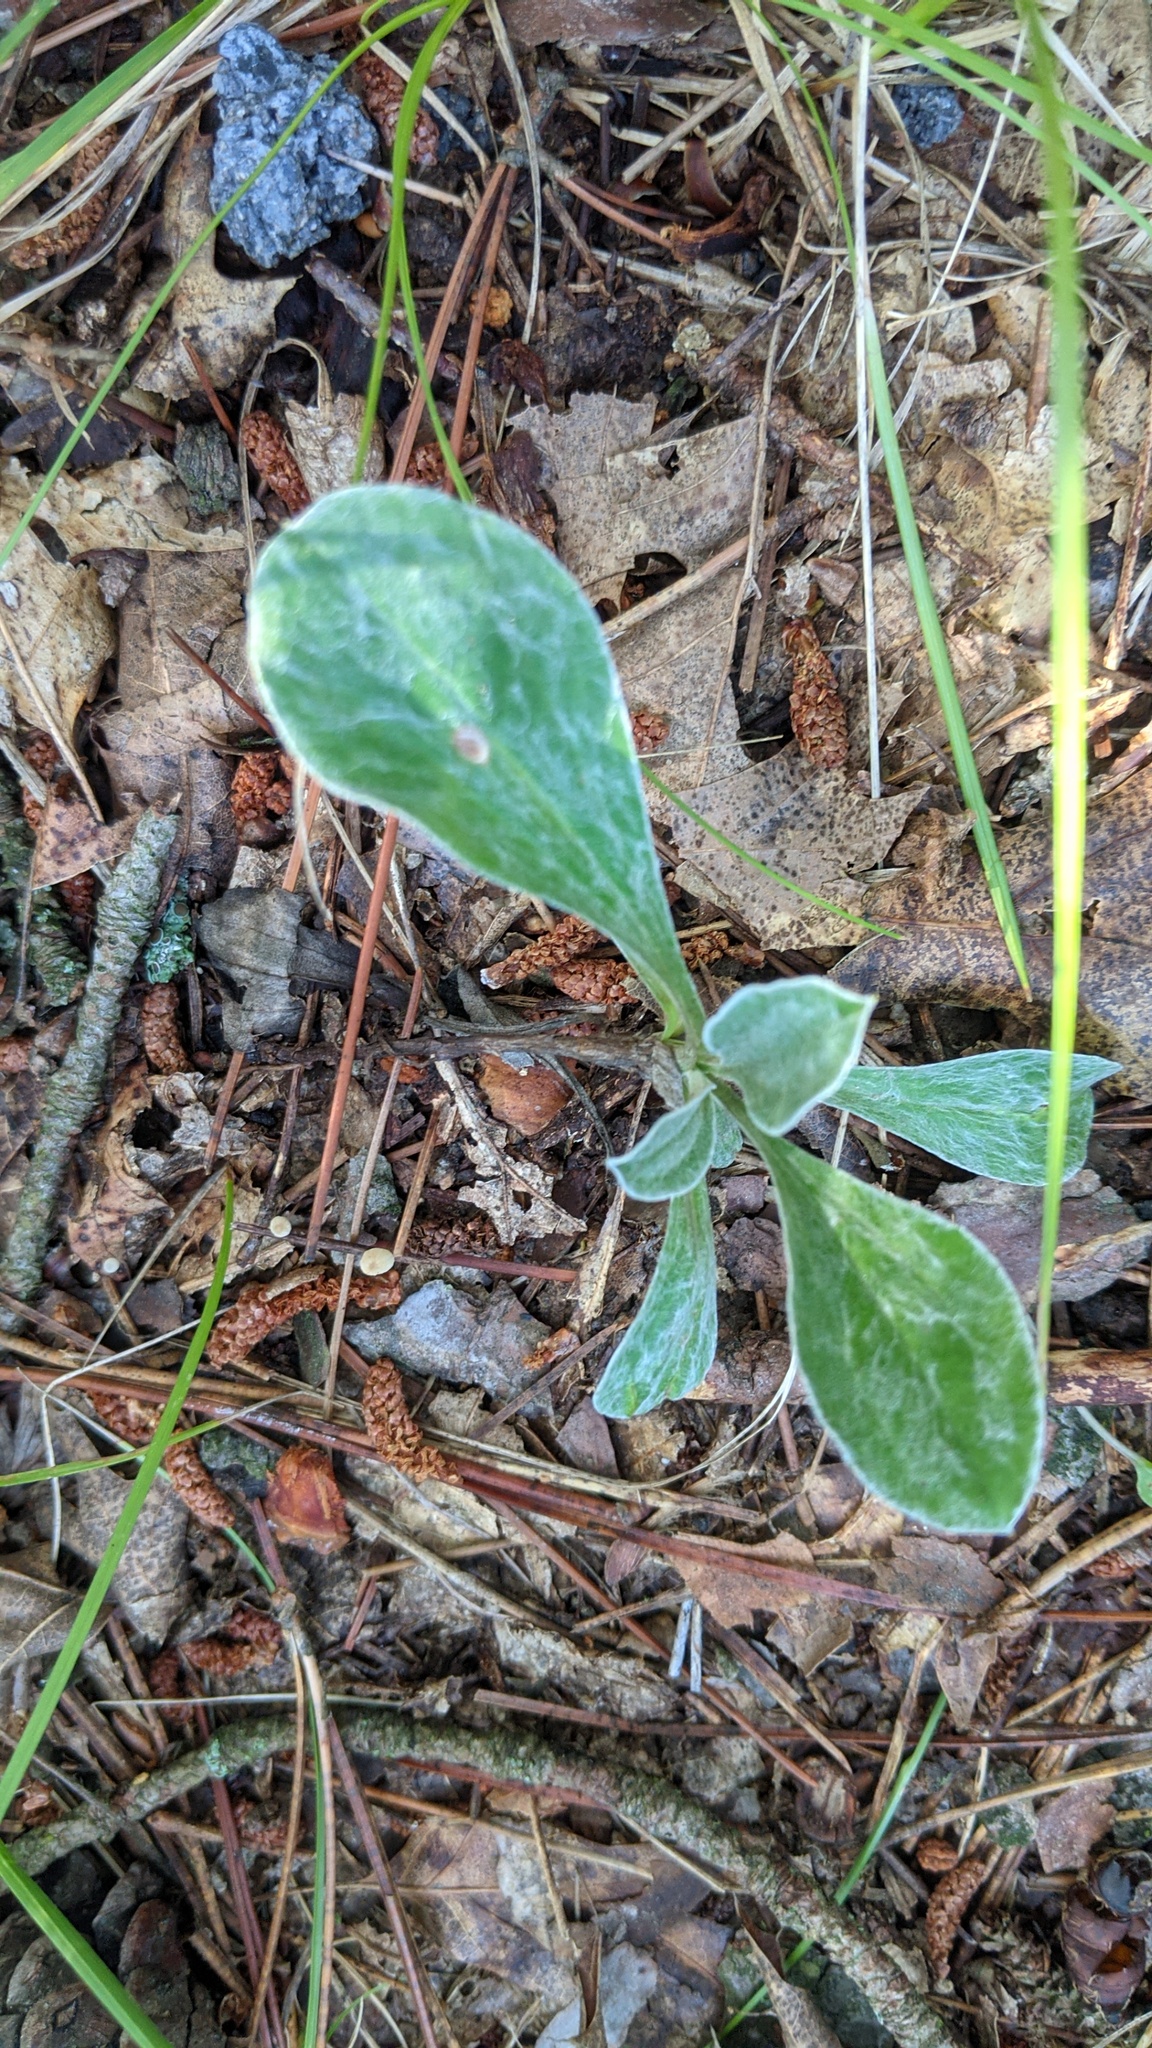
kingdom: Plantae
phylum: Tracheophyta
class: Magnoliopsida
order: Asterales
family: Asteraceae
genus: Antennaria
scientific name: Antennaria parlinii
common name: Parlin's pussytoes
